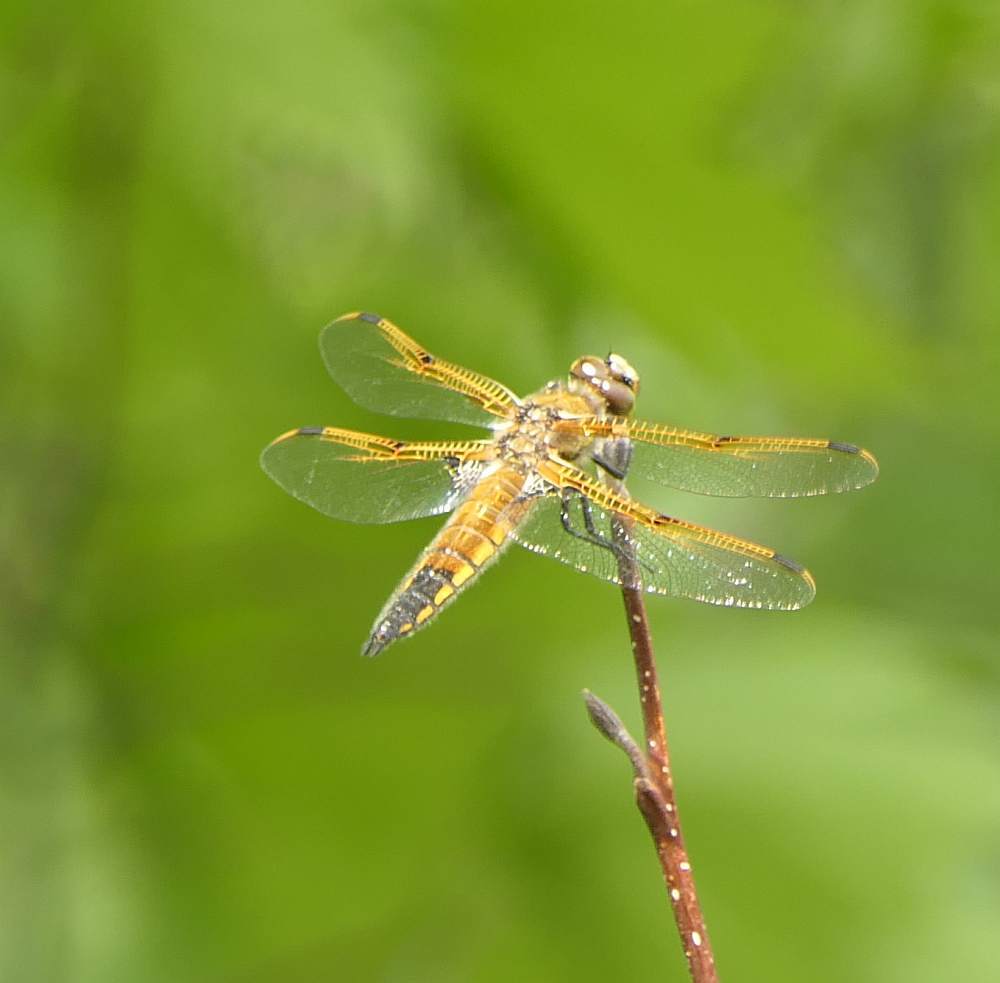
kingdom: Animalia
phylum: Arthropoda
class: Insecta
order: Odonata
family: Libellulidae
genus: Libellula
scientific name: Libellula quadrimaculata
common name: Four-spotted chaser
